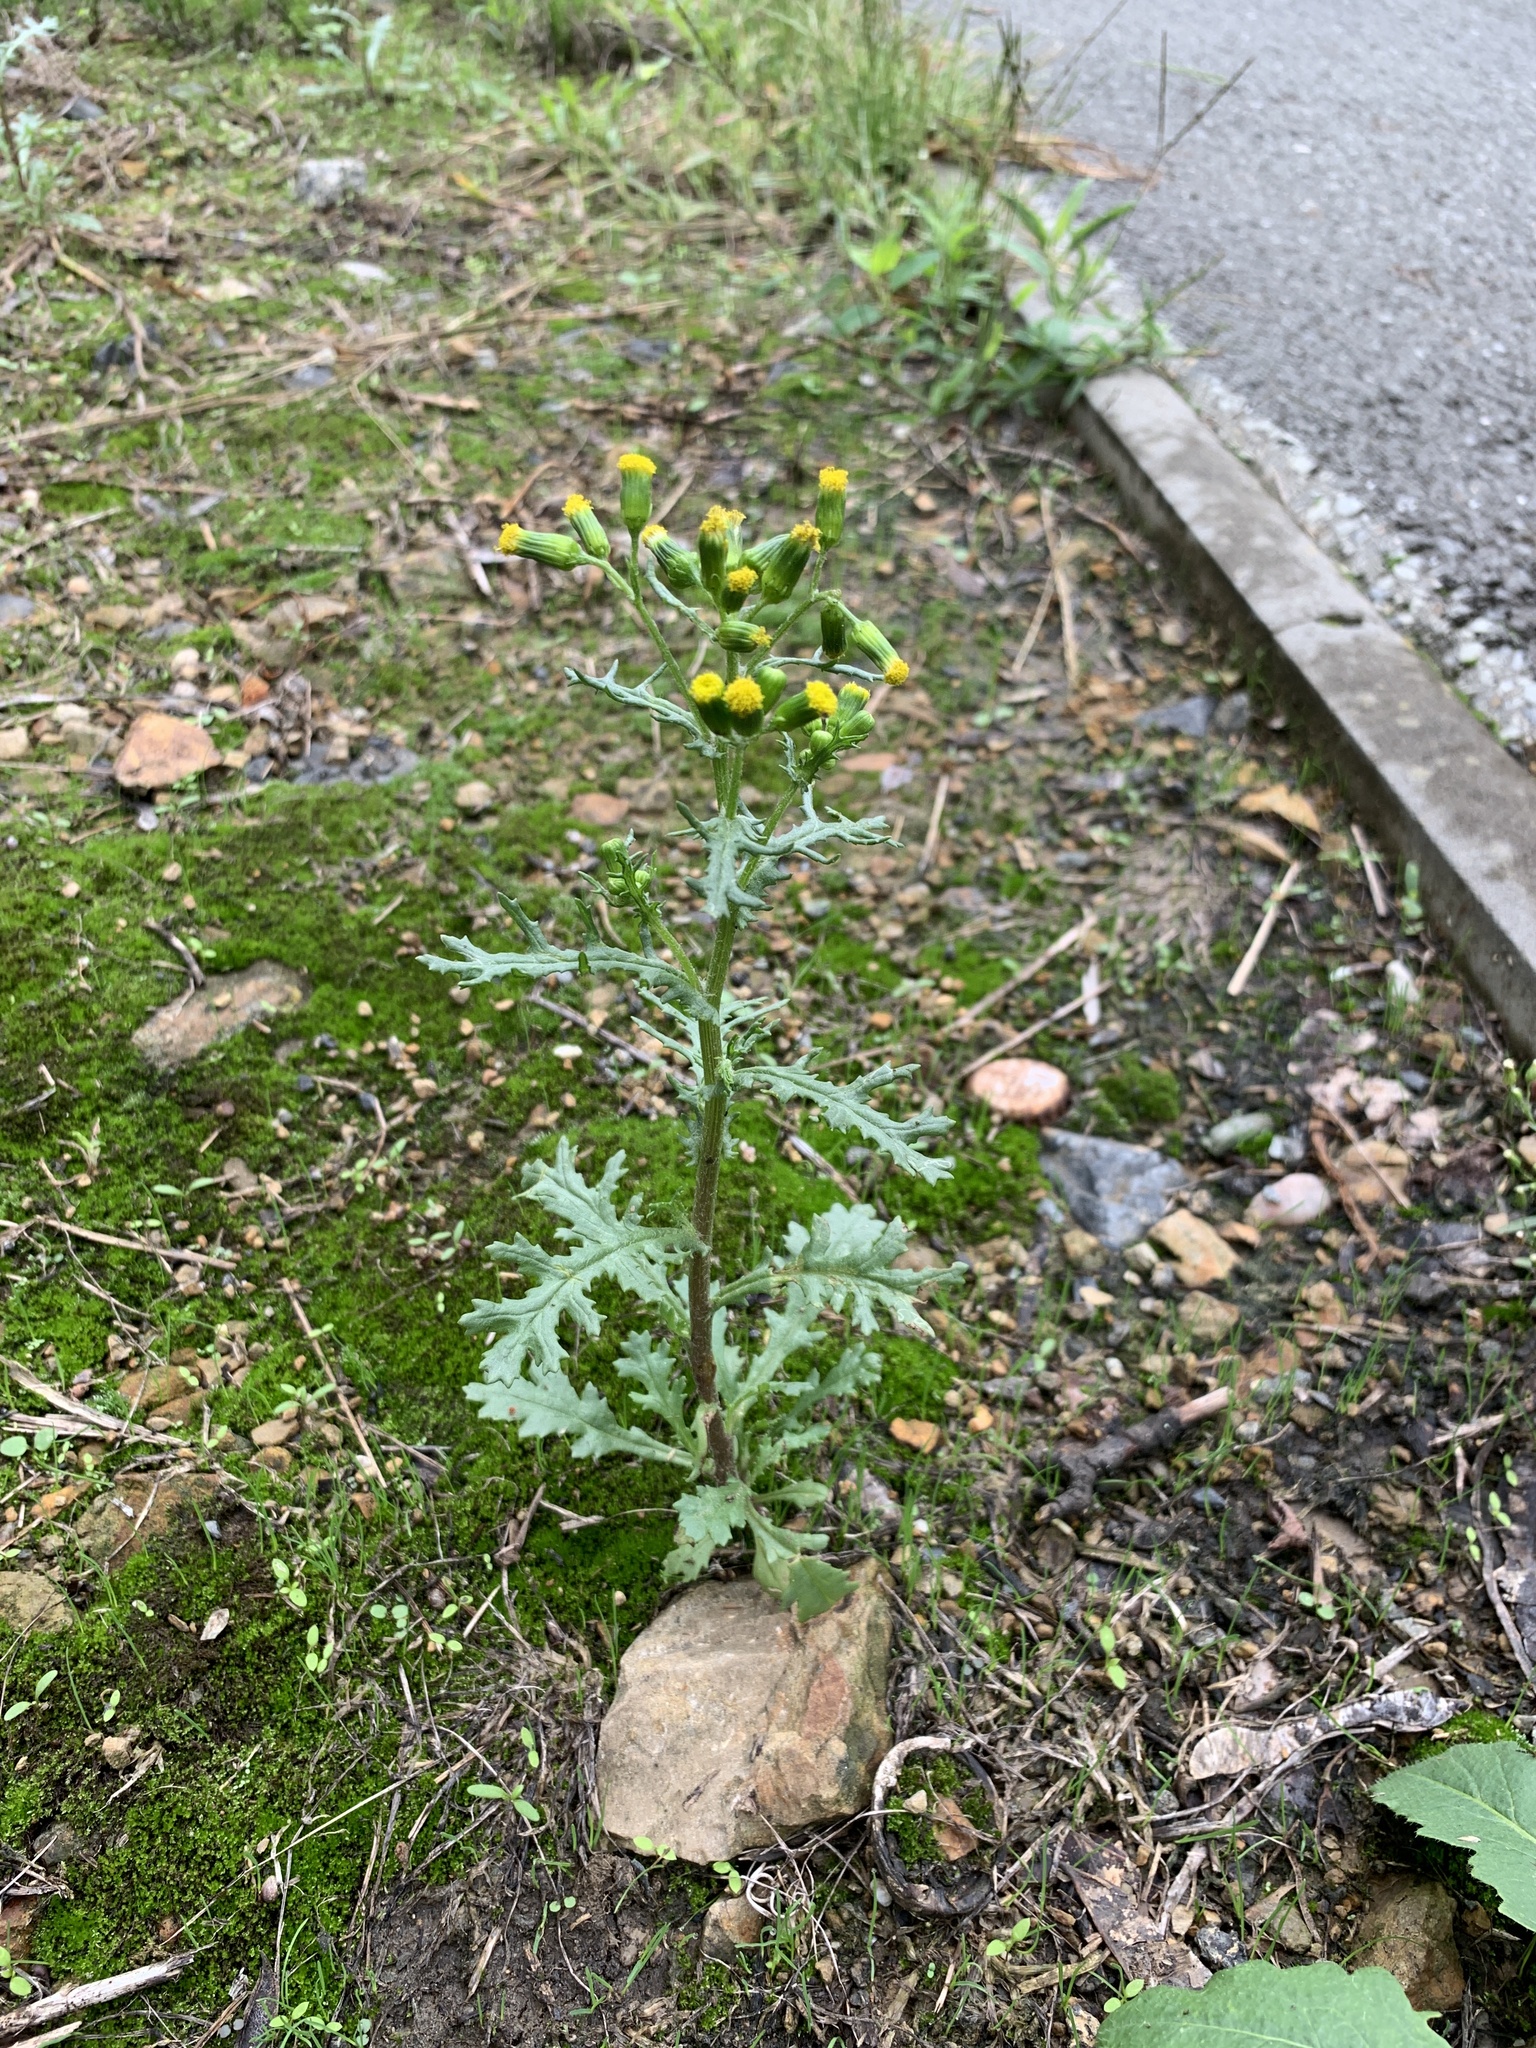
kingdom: Plantae
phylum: Tracheophyta
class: Magnoliopsida
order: Asterales
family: Asteraceae
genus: Senecio
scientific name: Senecio vulgaris
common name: Old-man-in-the-spring
